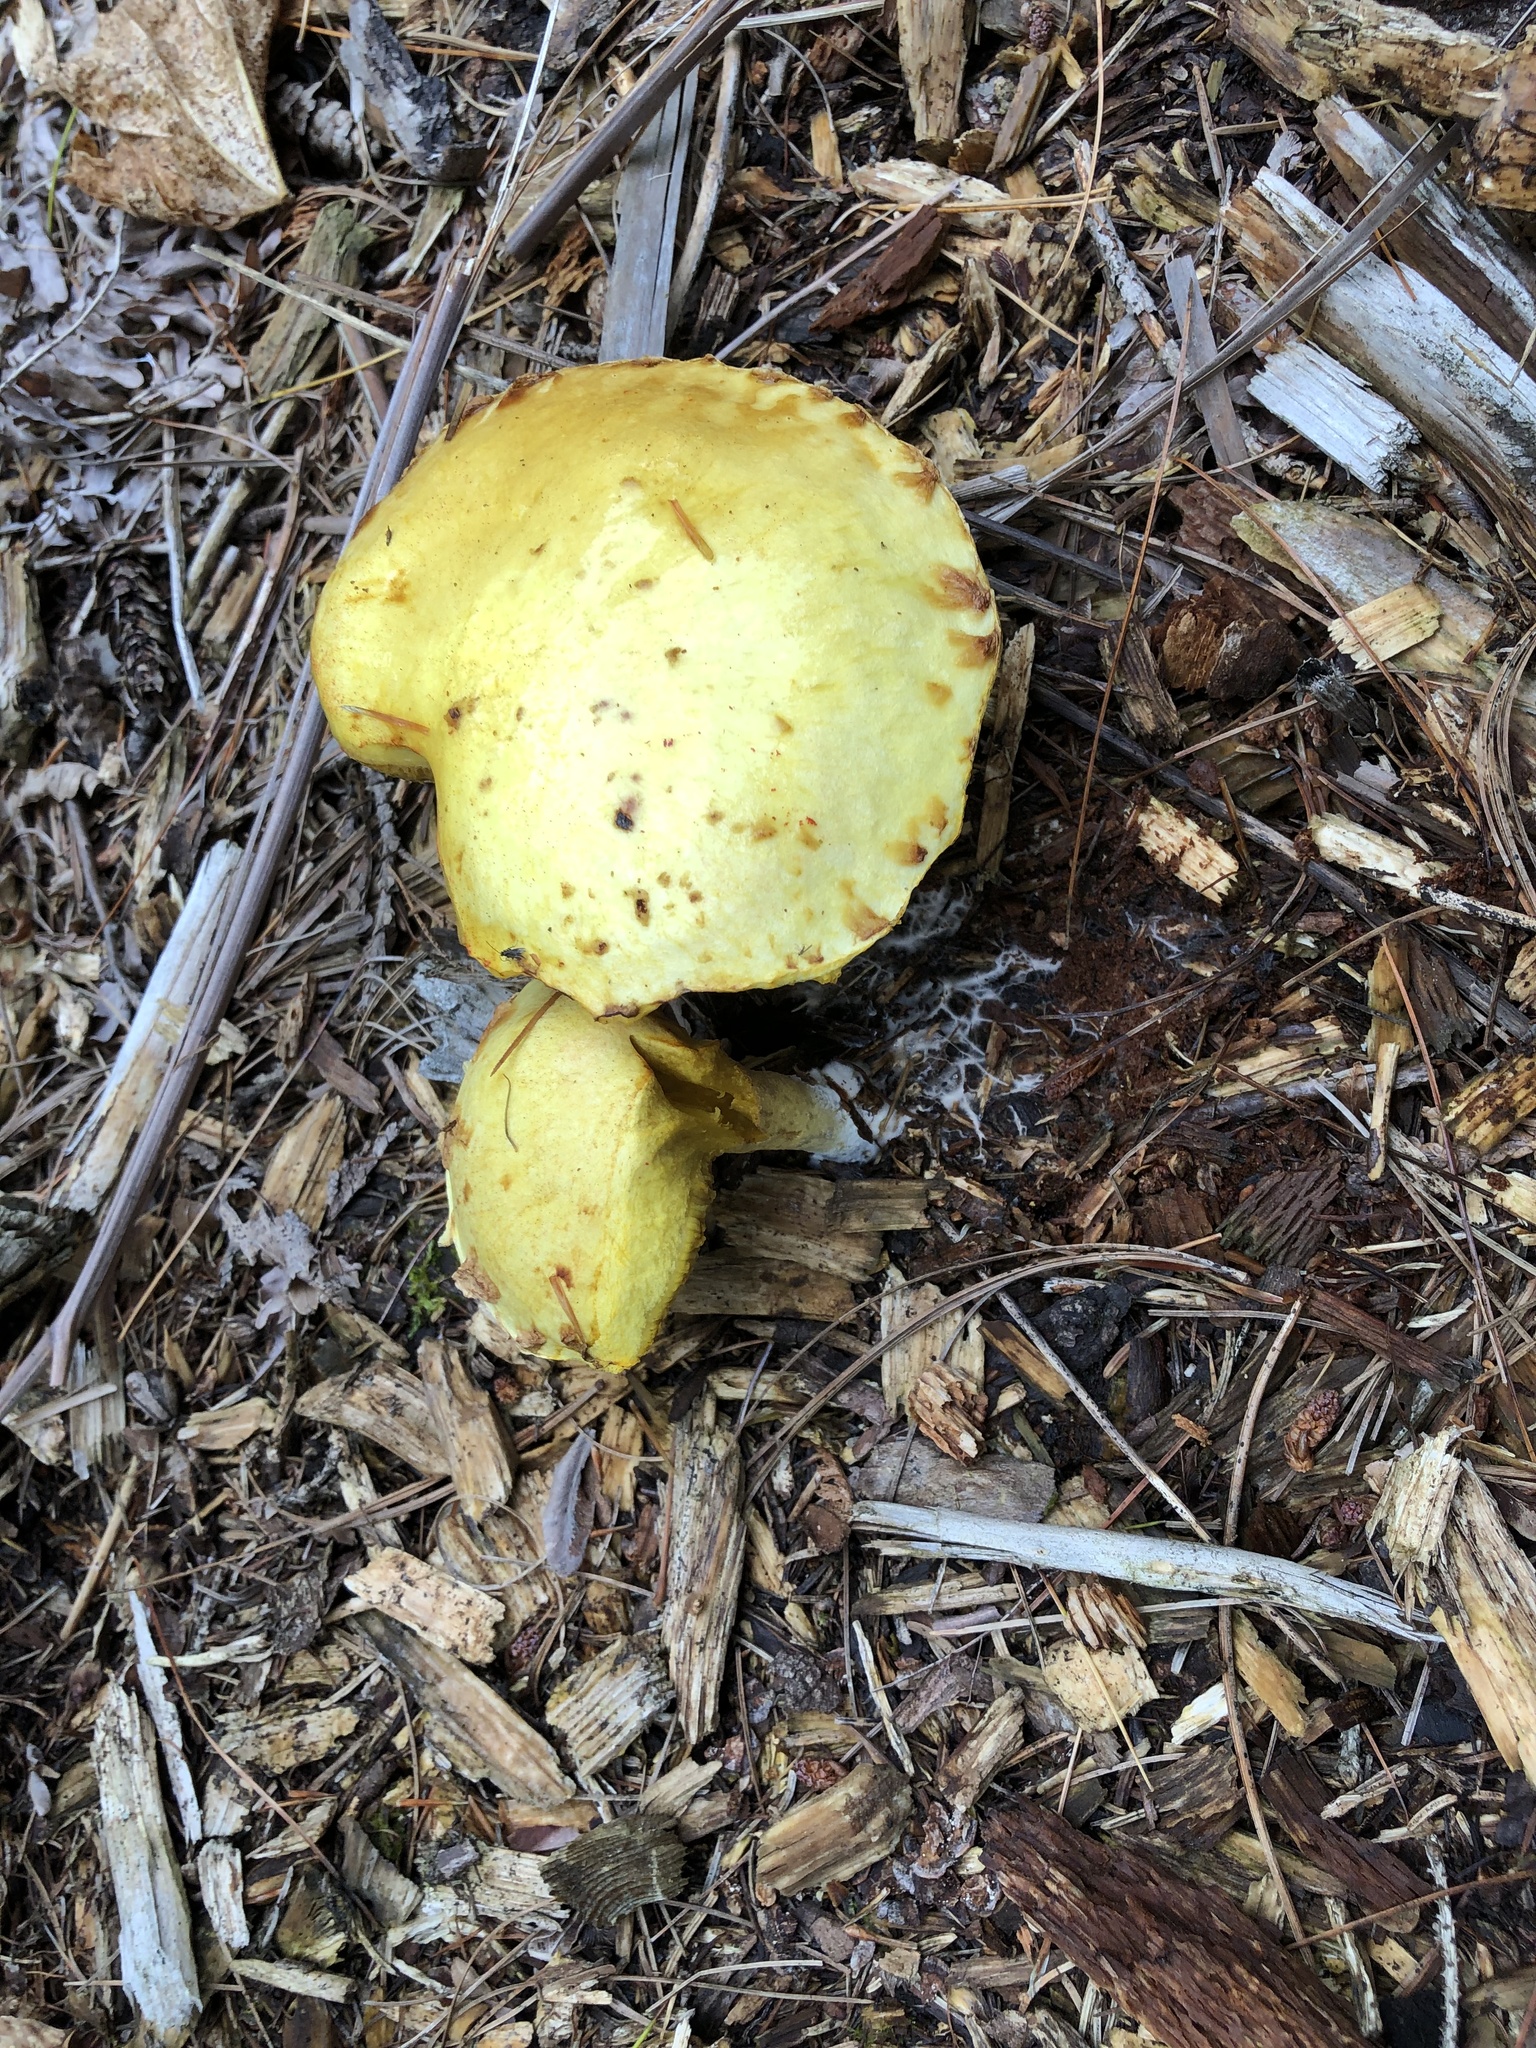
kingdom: Fungi
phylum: Basidiomycota
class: Agaricomycetes
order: Boletales
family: Suillaceae
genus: Suillus
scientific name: Suillus americanus
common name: Chicken fat mushroom
